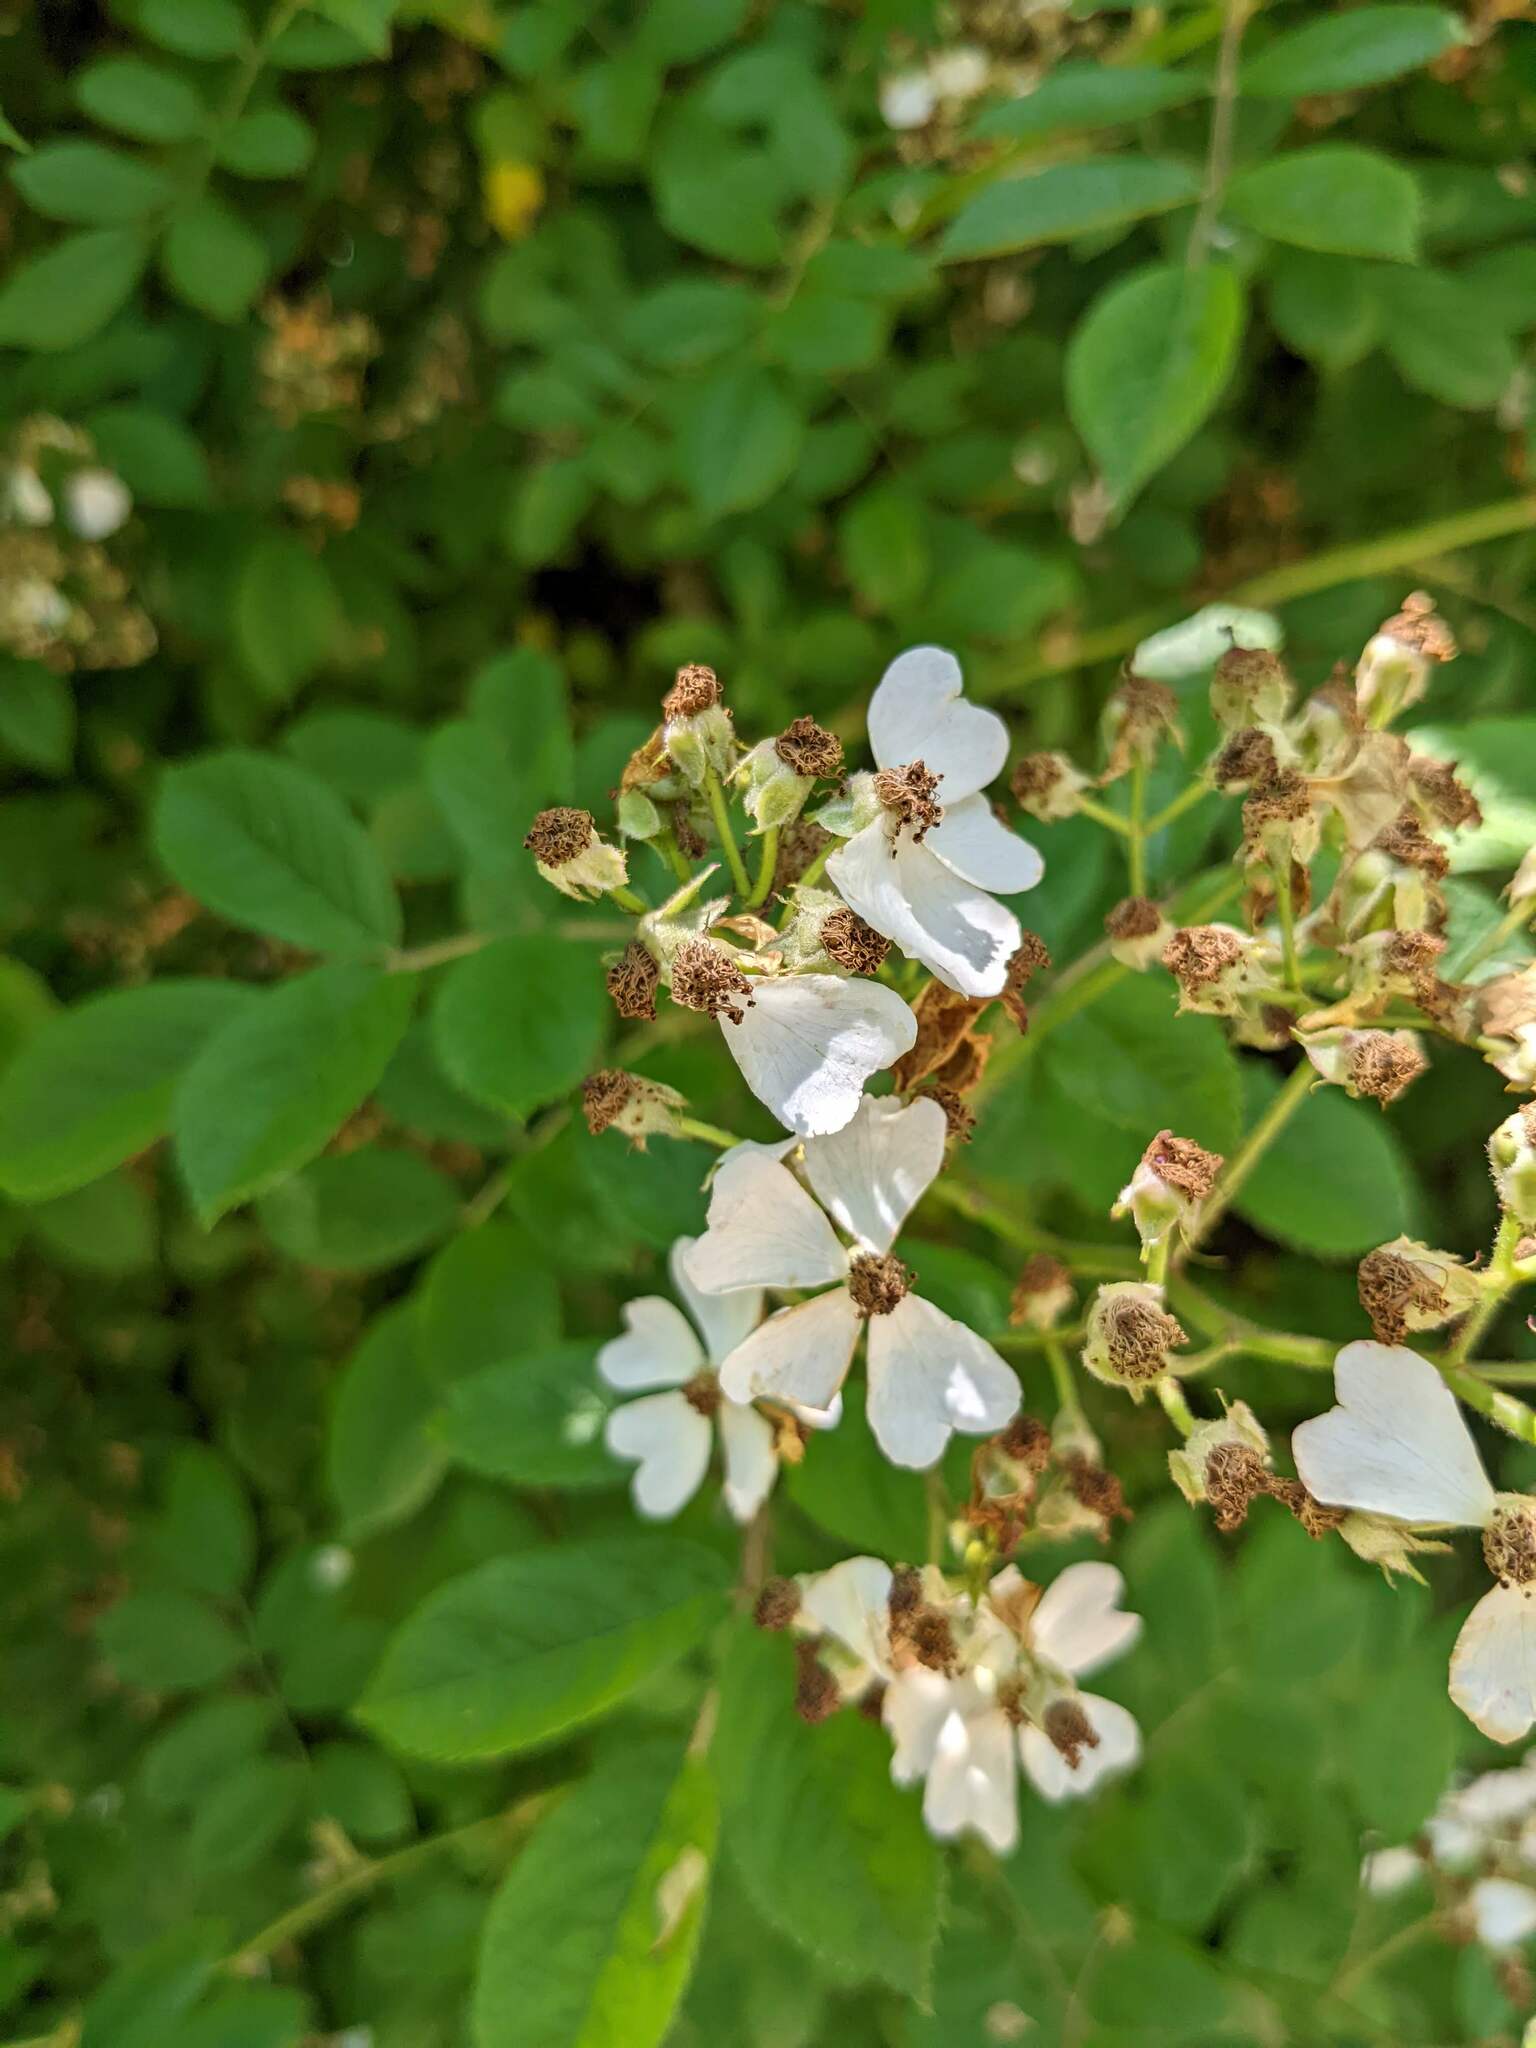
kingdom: Plantae
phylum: Tracheophyta
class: Magnoliopsida
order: Rosales
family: Rosaceae
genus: Rosa
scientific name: Rosa multiflora
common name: Multiflora rose
